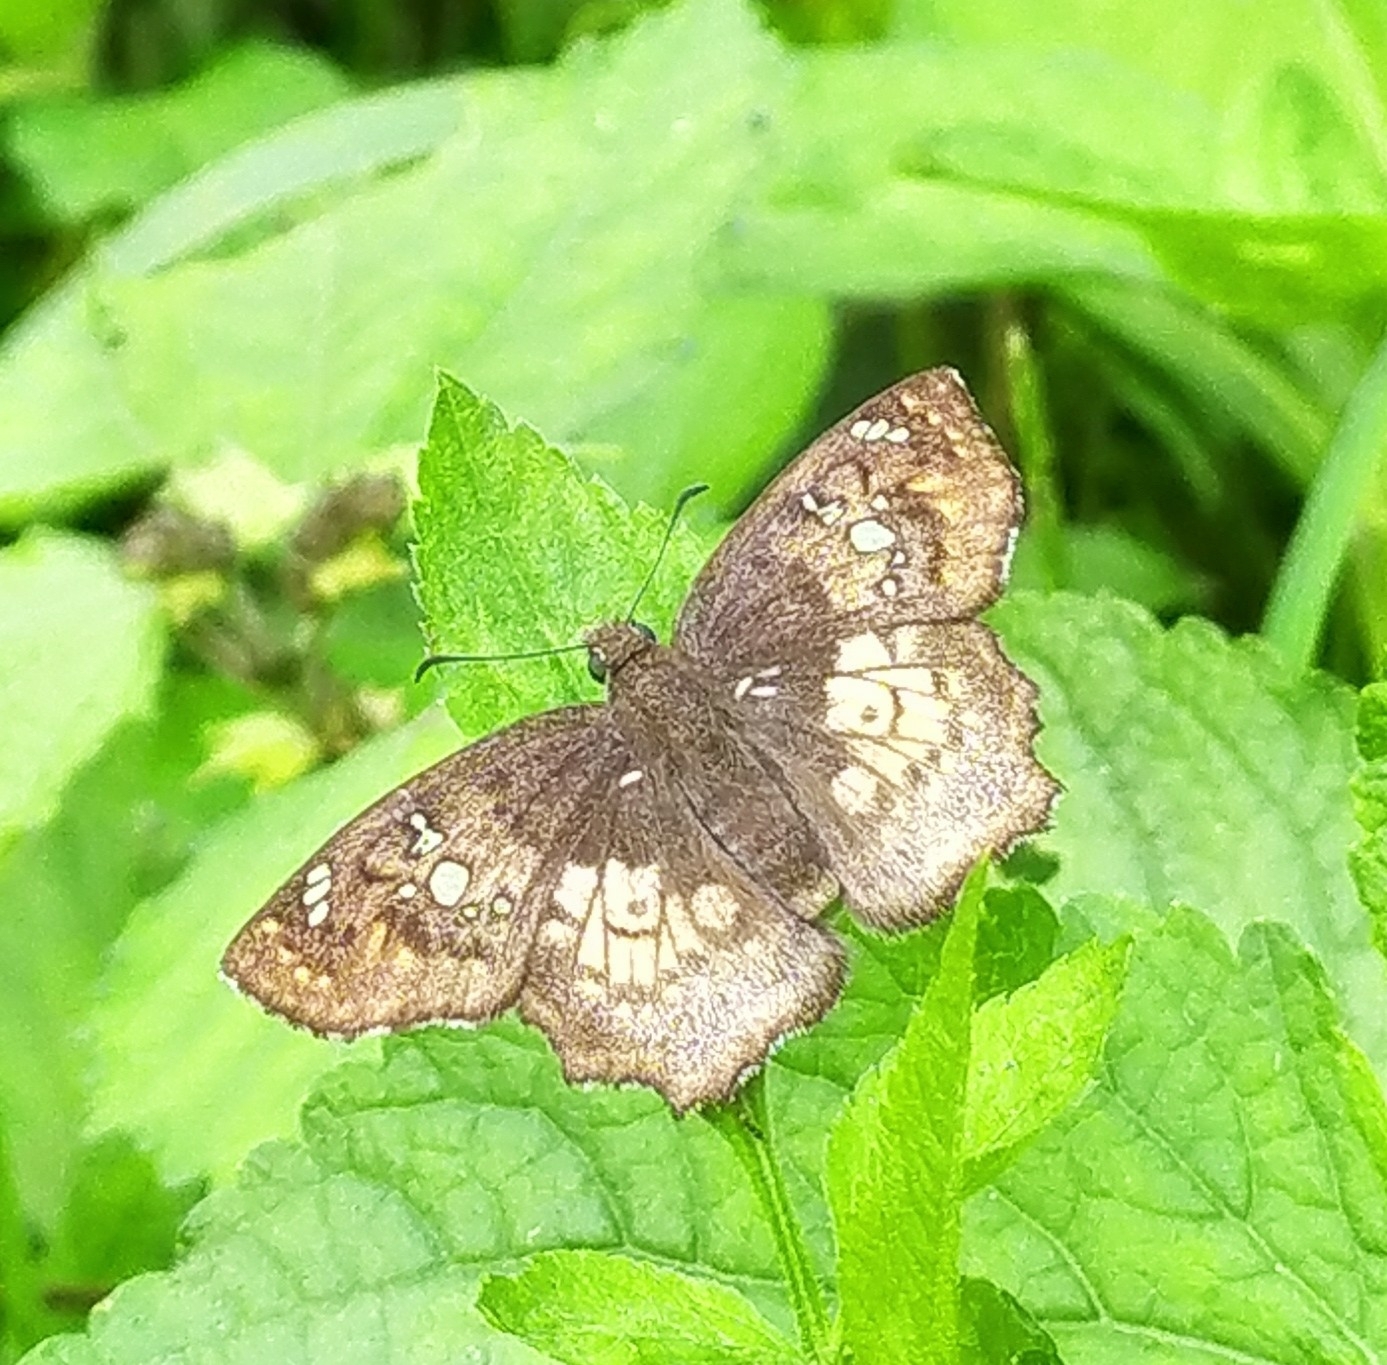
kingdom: Animalia
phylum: Arthropoda
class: Insecta
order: Lepidoptera
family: Hesperiidae
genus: Caprona
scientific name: Caprona ransonnettii
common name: Golden angle
